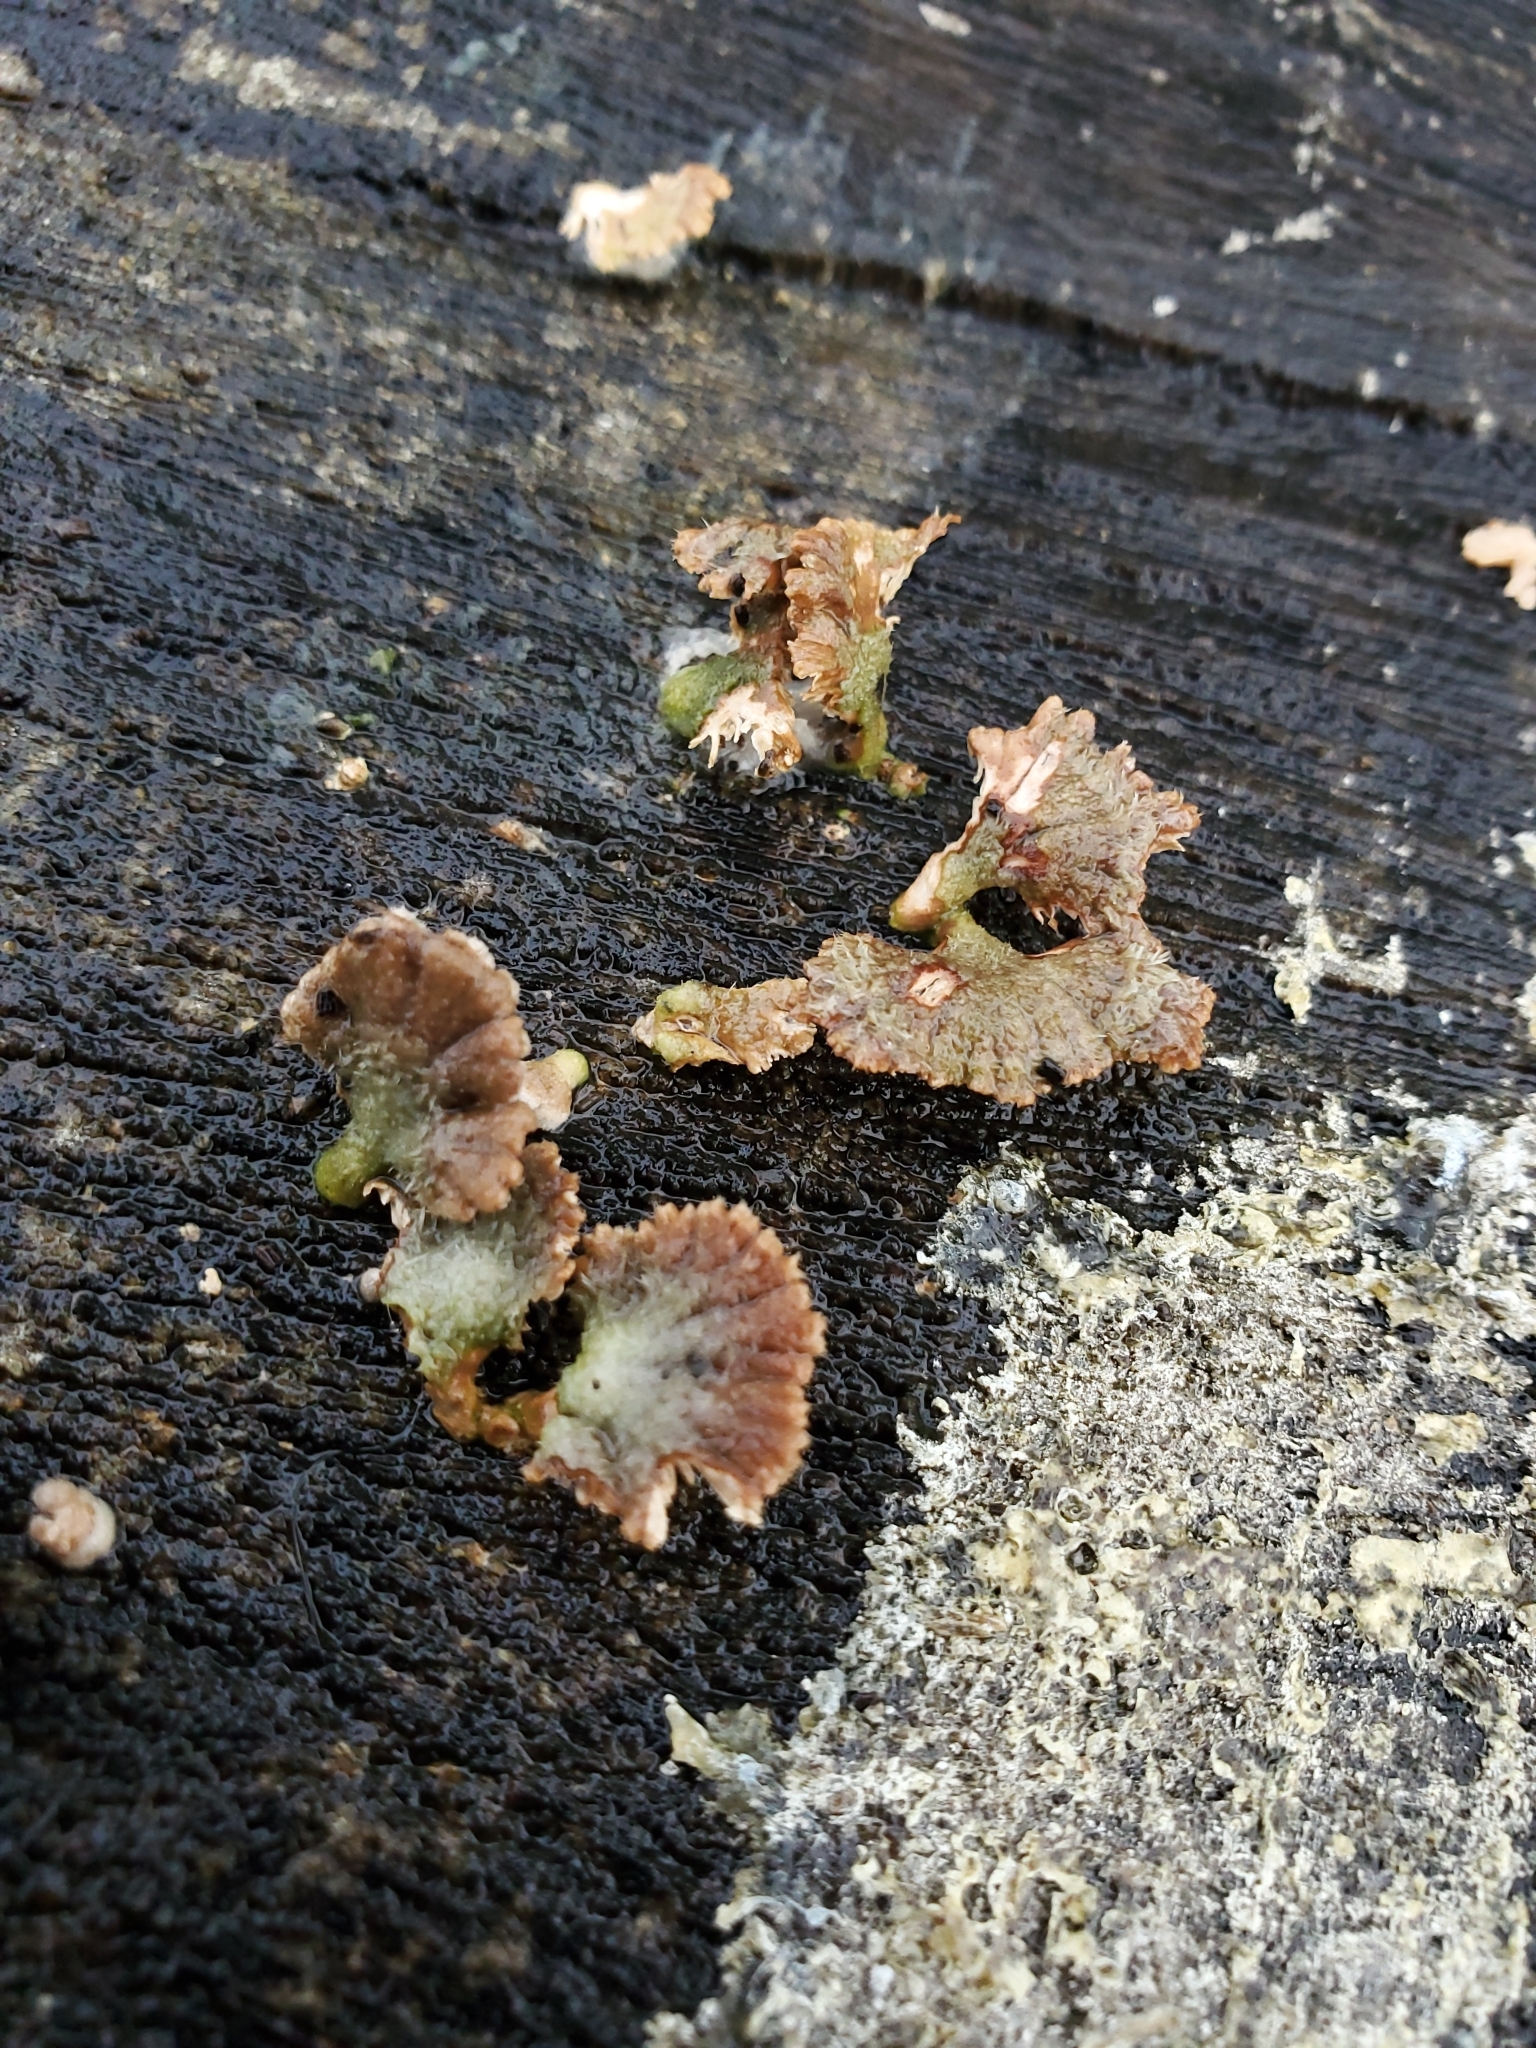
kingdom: Fungi
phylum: Basidiomycota
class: Agaricomycetes
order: Agaricales
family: Schizophyllaceae
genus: Schizophyllum
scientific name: Schizophyllum commune
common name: Common porecrust
